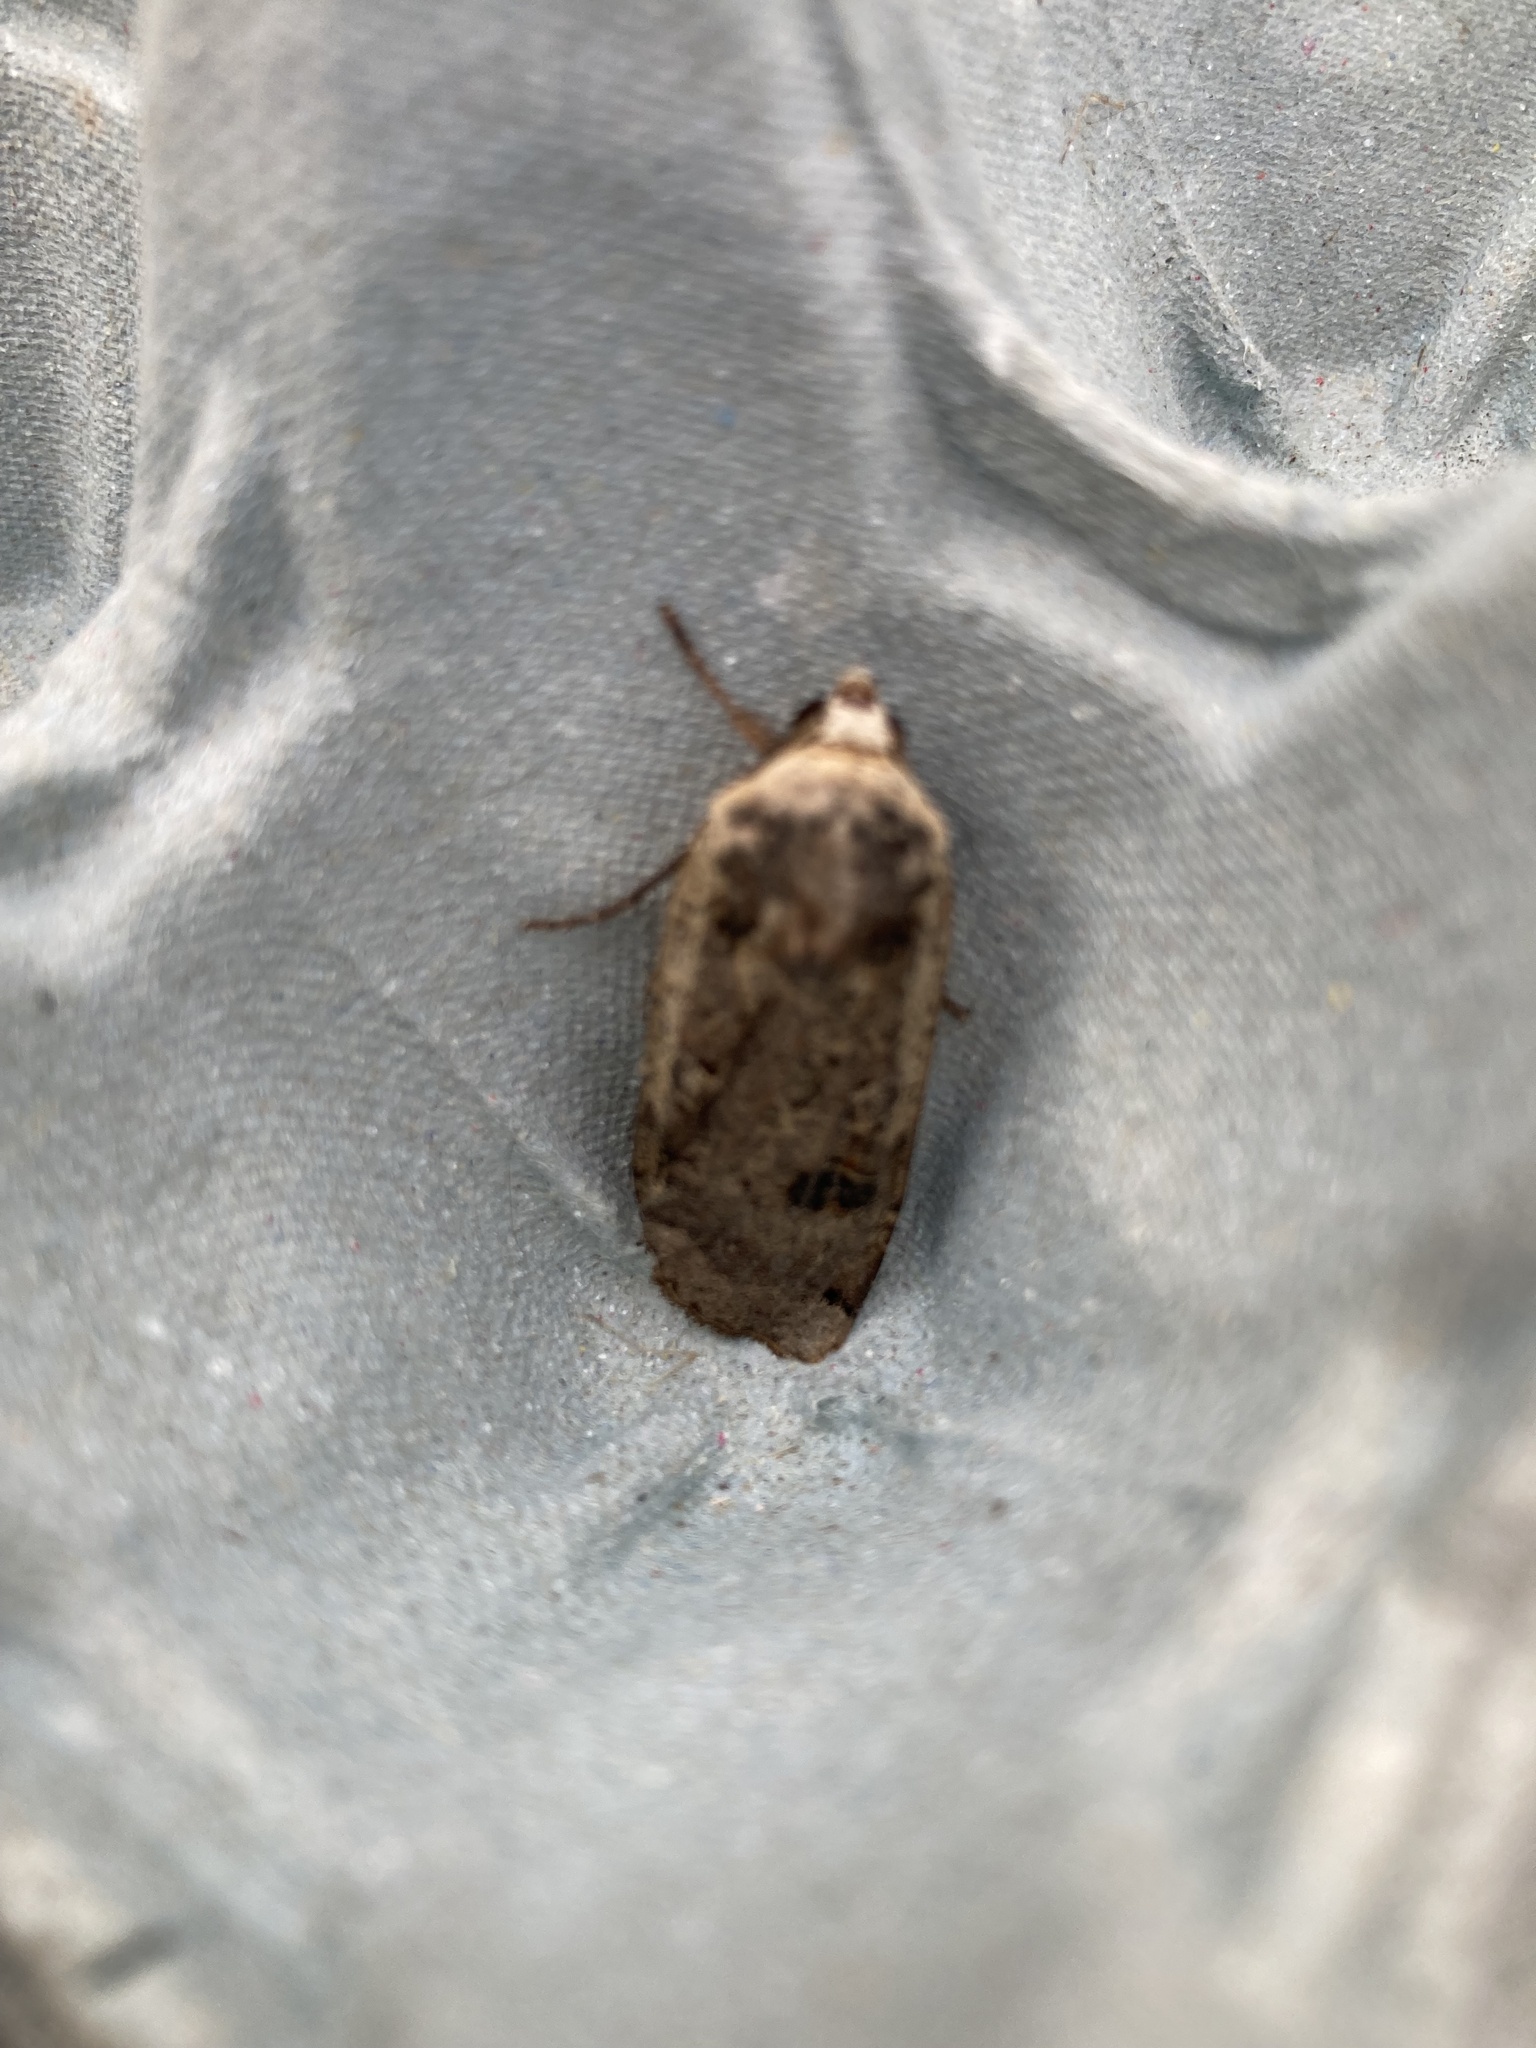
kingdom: Animalia
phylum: Arthropoda
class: Insecta
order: Lepidoptera
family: Noctuidae
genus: Noctua
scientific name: Noctua pronuba
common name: Large yellow underwing
